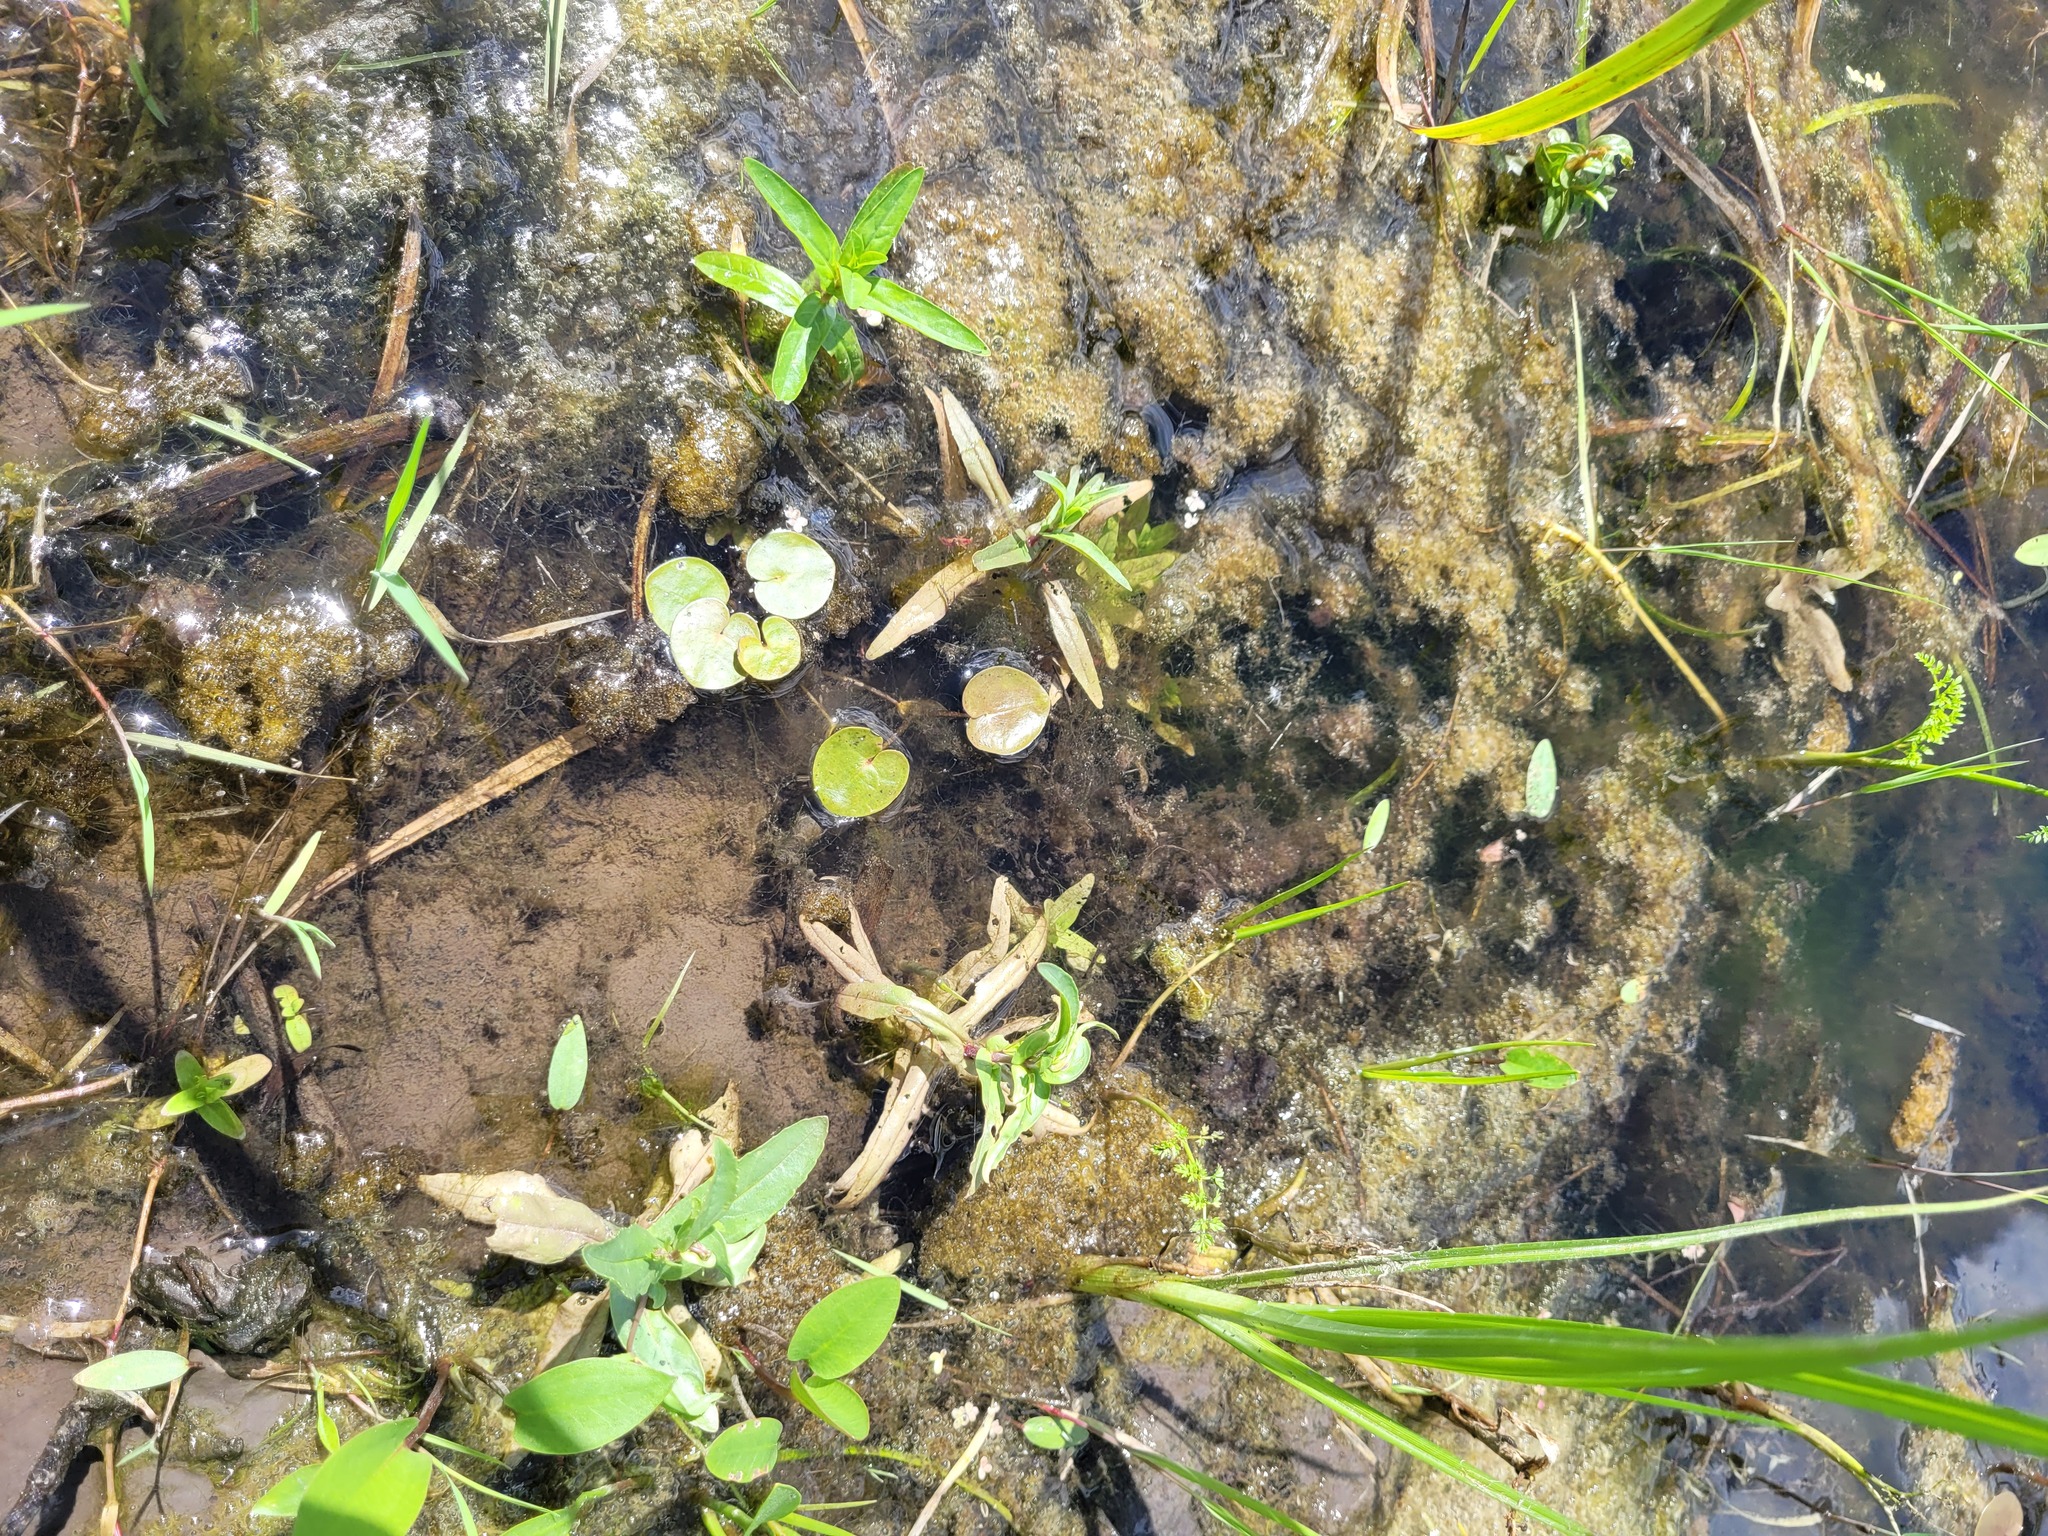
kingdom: Plantae
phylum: Tracheophyta
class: Liliopsida
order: Alismatales
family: Hydrocharitaceae
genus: Hydrocharis
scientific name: Hydrocharis morsus-ranae
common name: Frogbit
